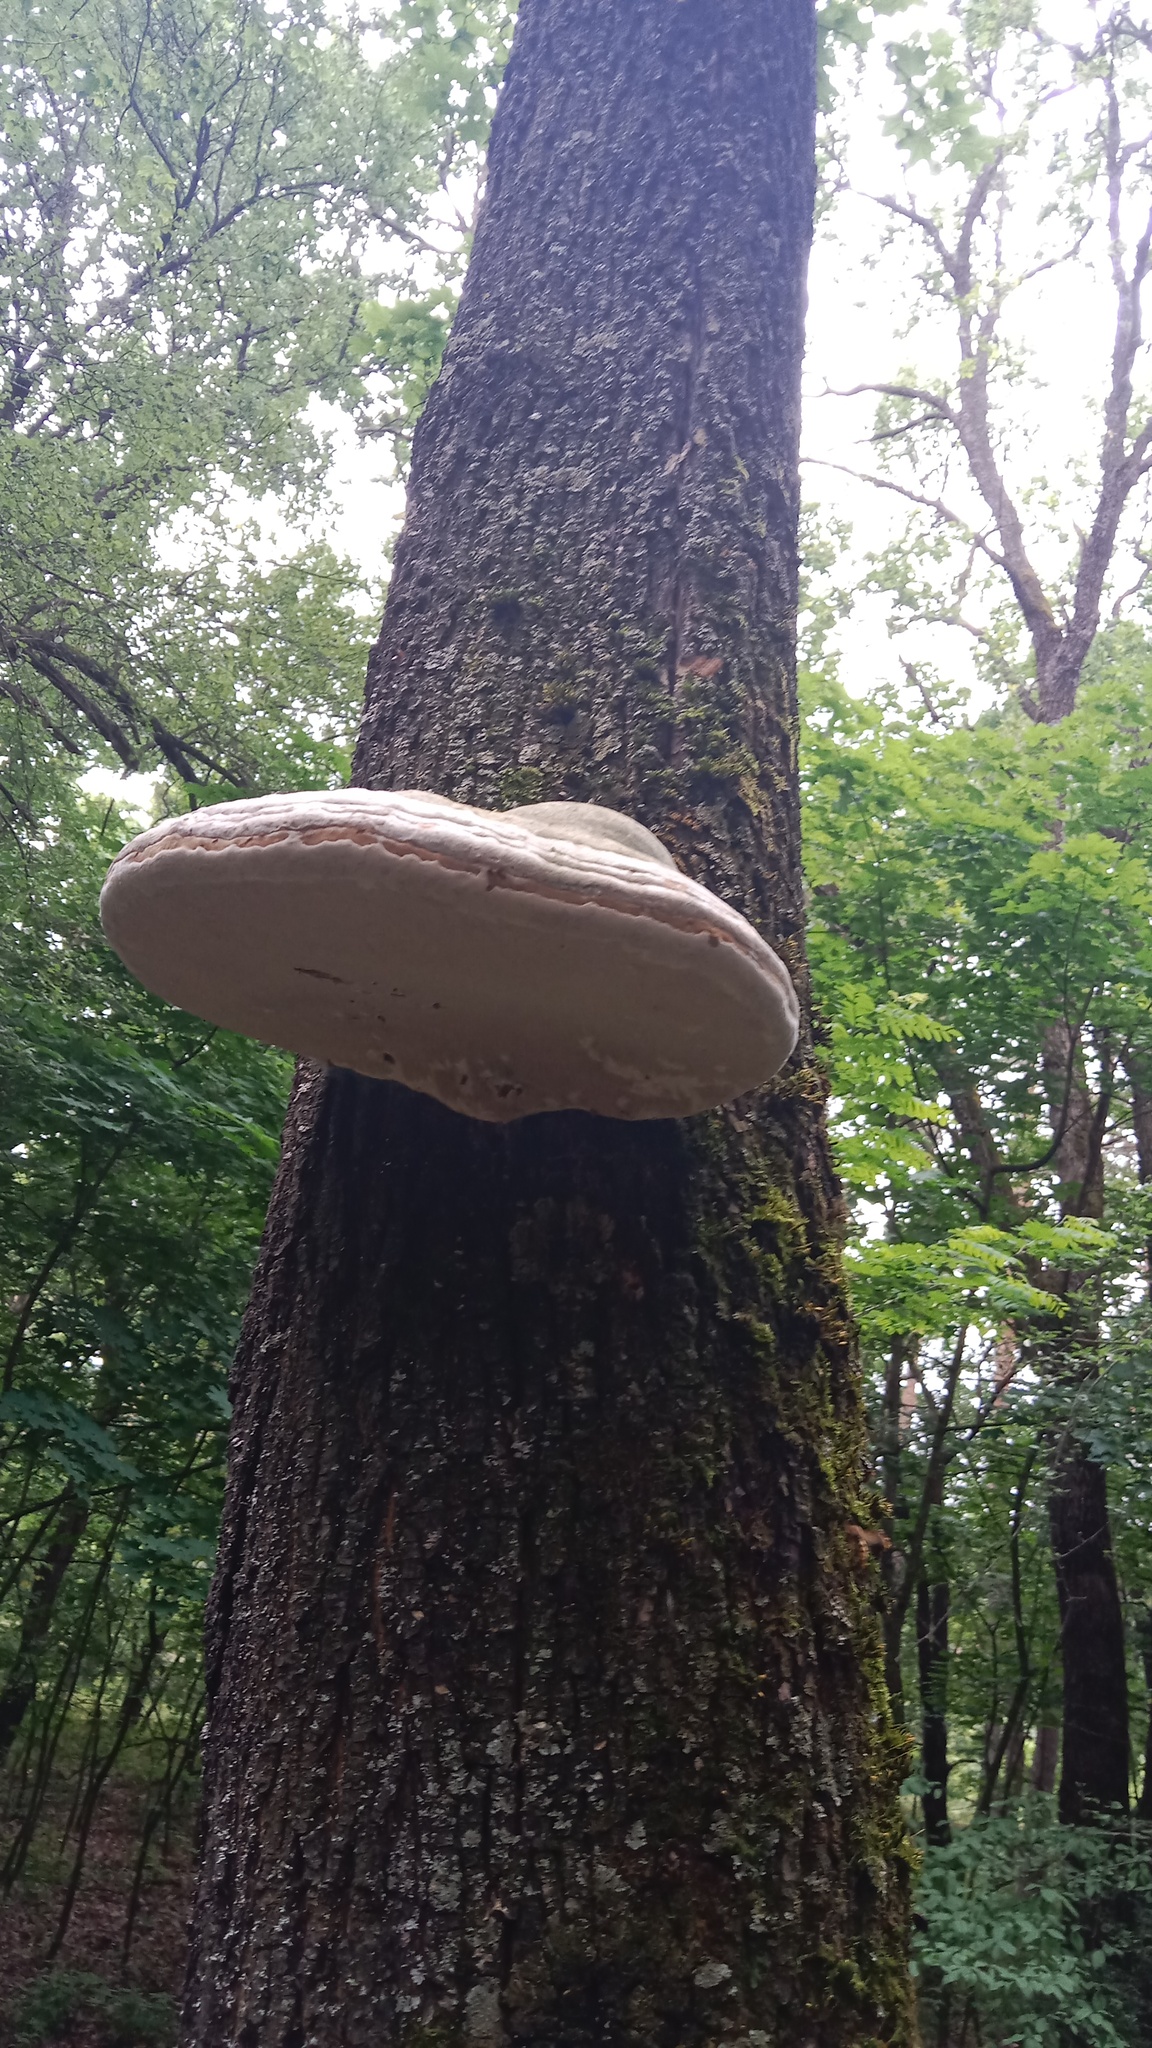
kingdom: Fungi
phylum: Basidiomycota
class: Agaricomycetes
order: Polyporales
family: Polyporaceae
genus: Fomes
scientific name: Fomes fomentarius
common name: Hoof fungus
